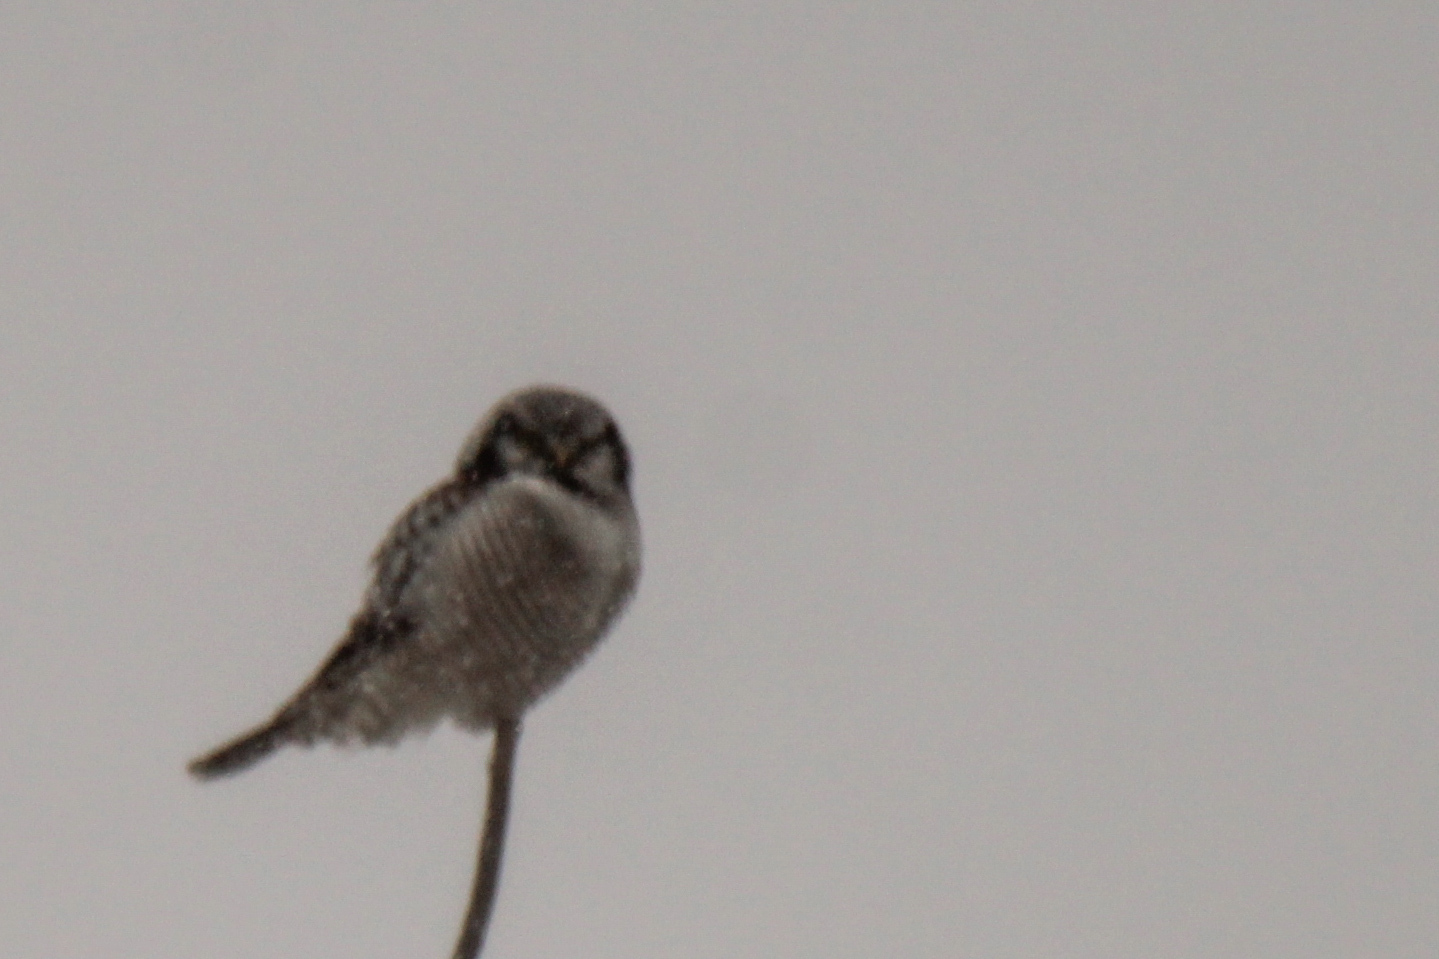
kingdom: Animalia
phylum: Chordata
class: Aves
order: Strigiformes
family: Strigidae
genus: Surnia
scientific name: Surnia ulula
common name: Northern hawk-owl
